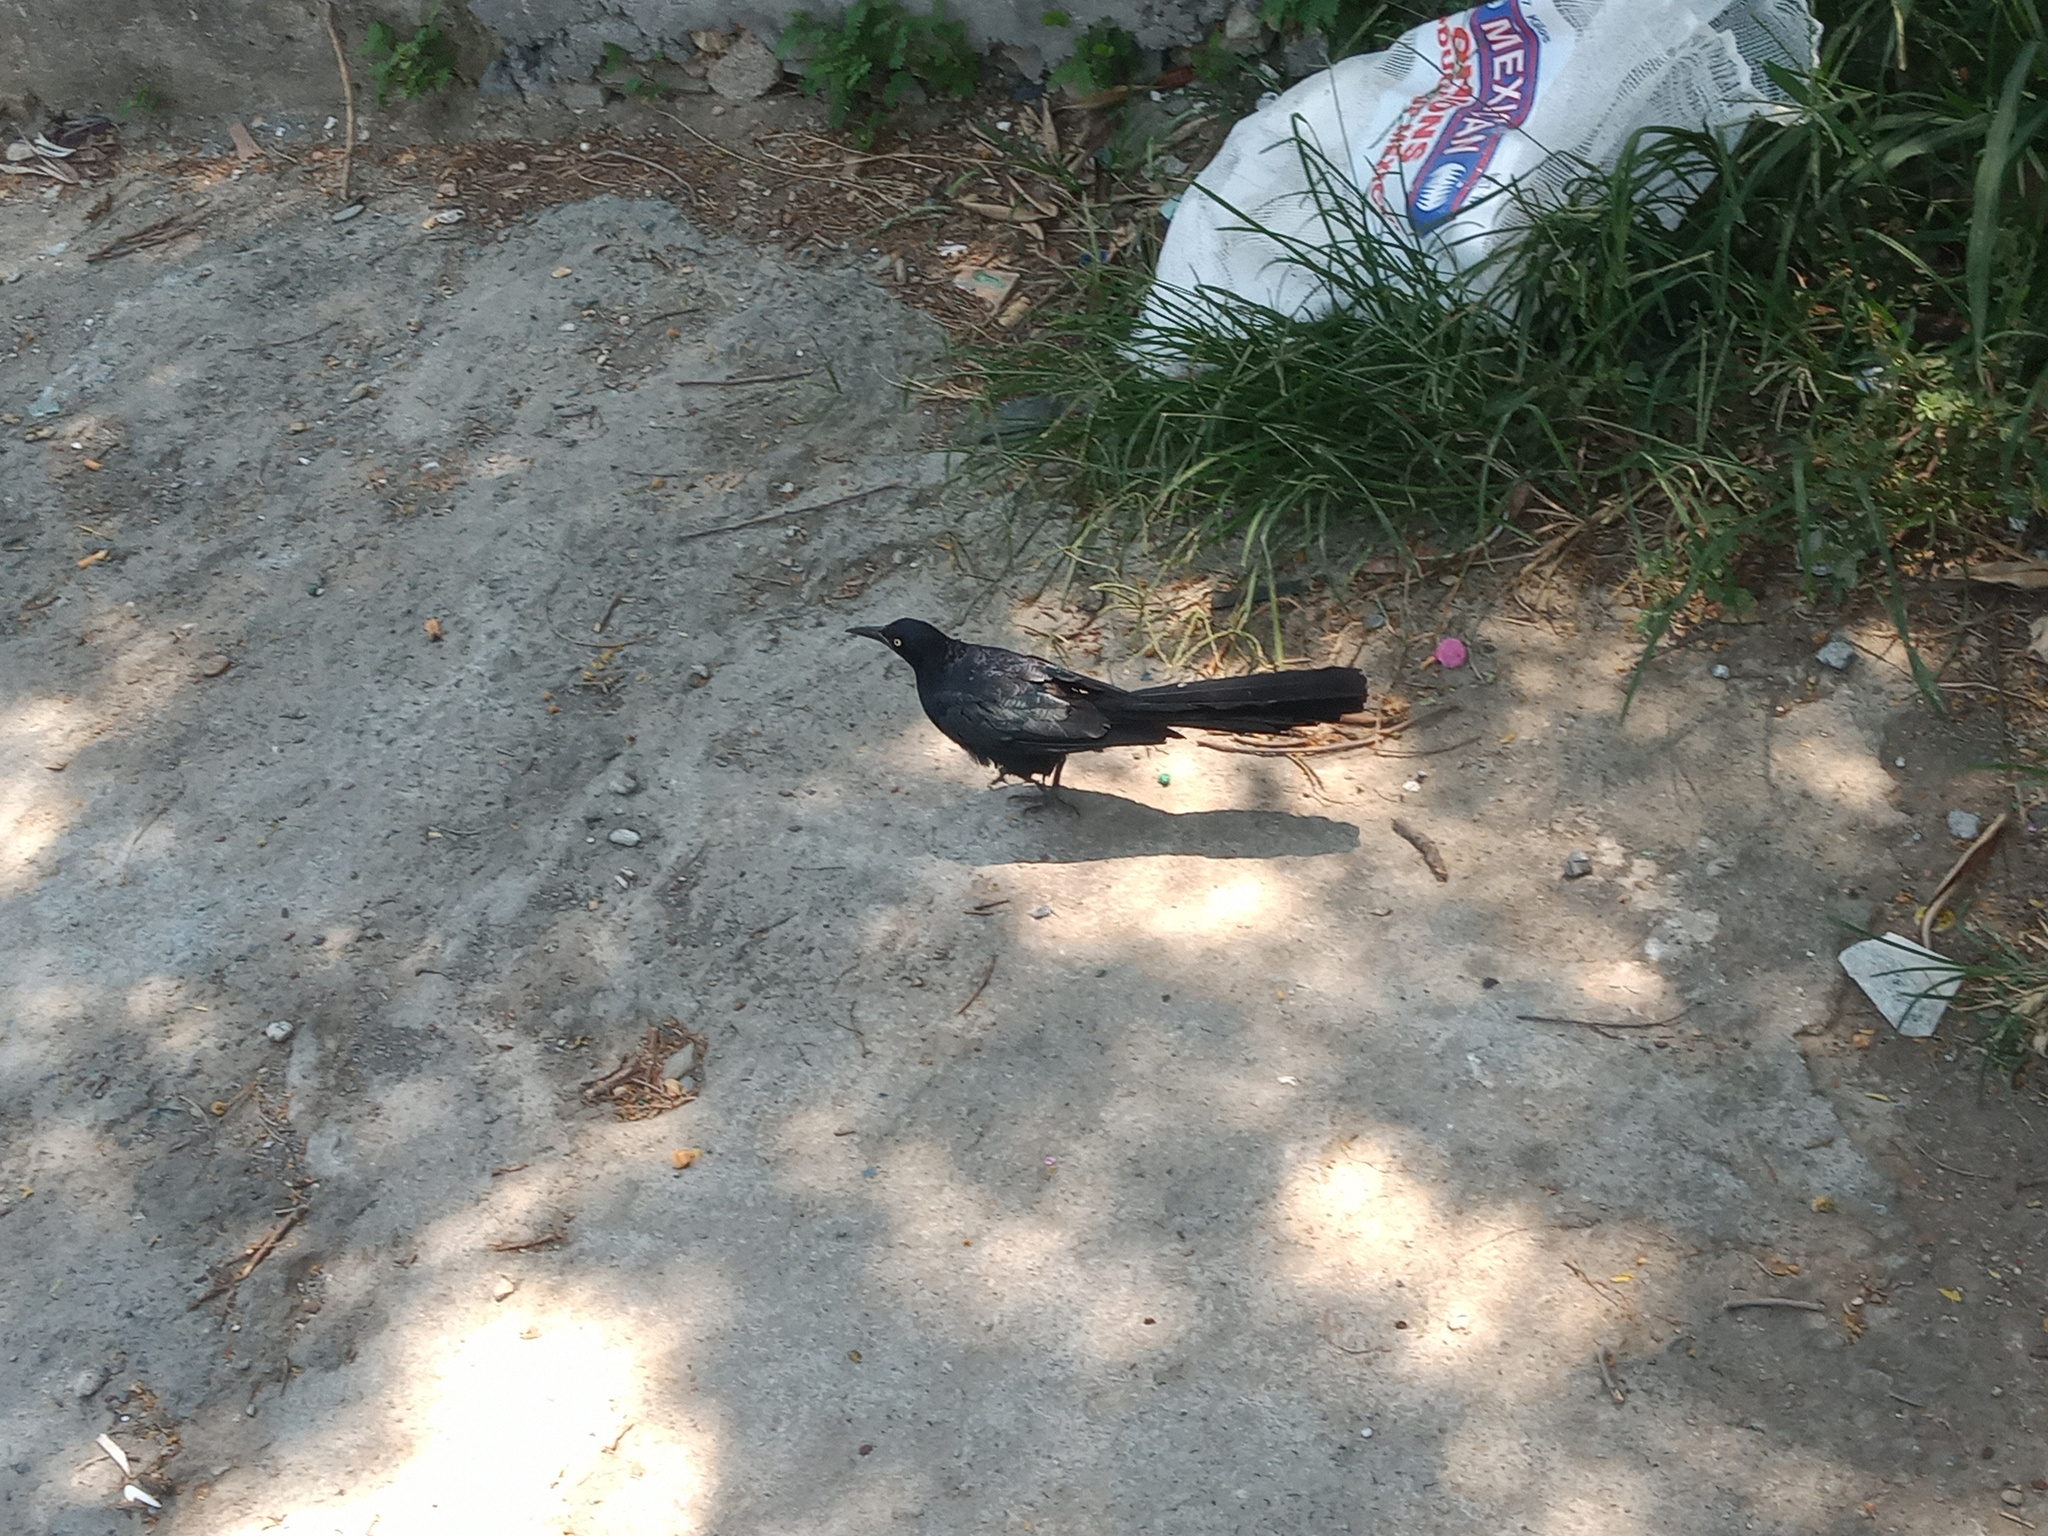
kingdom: Animalia
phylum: Chordata
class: Aves
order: Passeriformes
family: Icteridae
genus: Quiscalus
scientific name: Quiscalus mexicanus
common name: Great-tailed grackle
